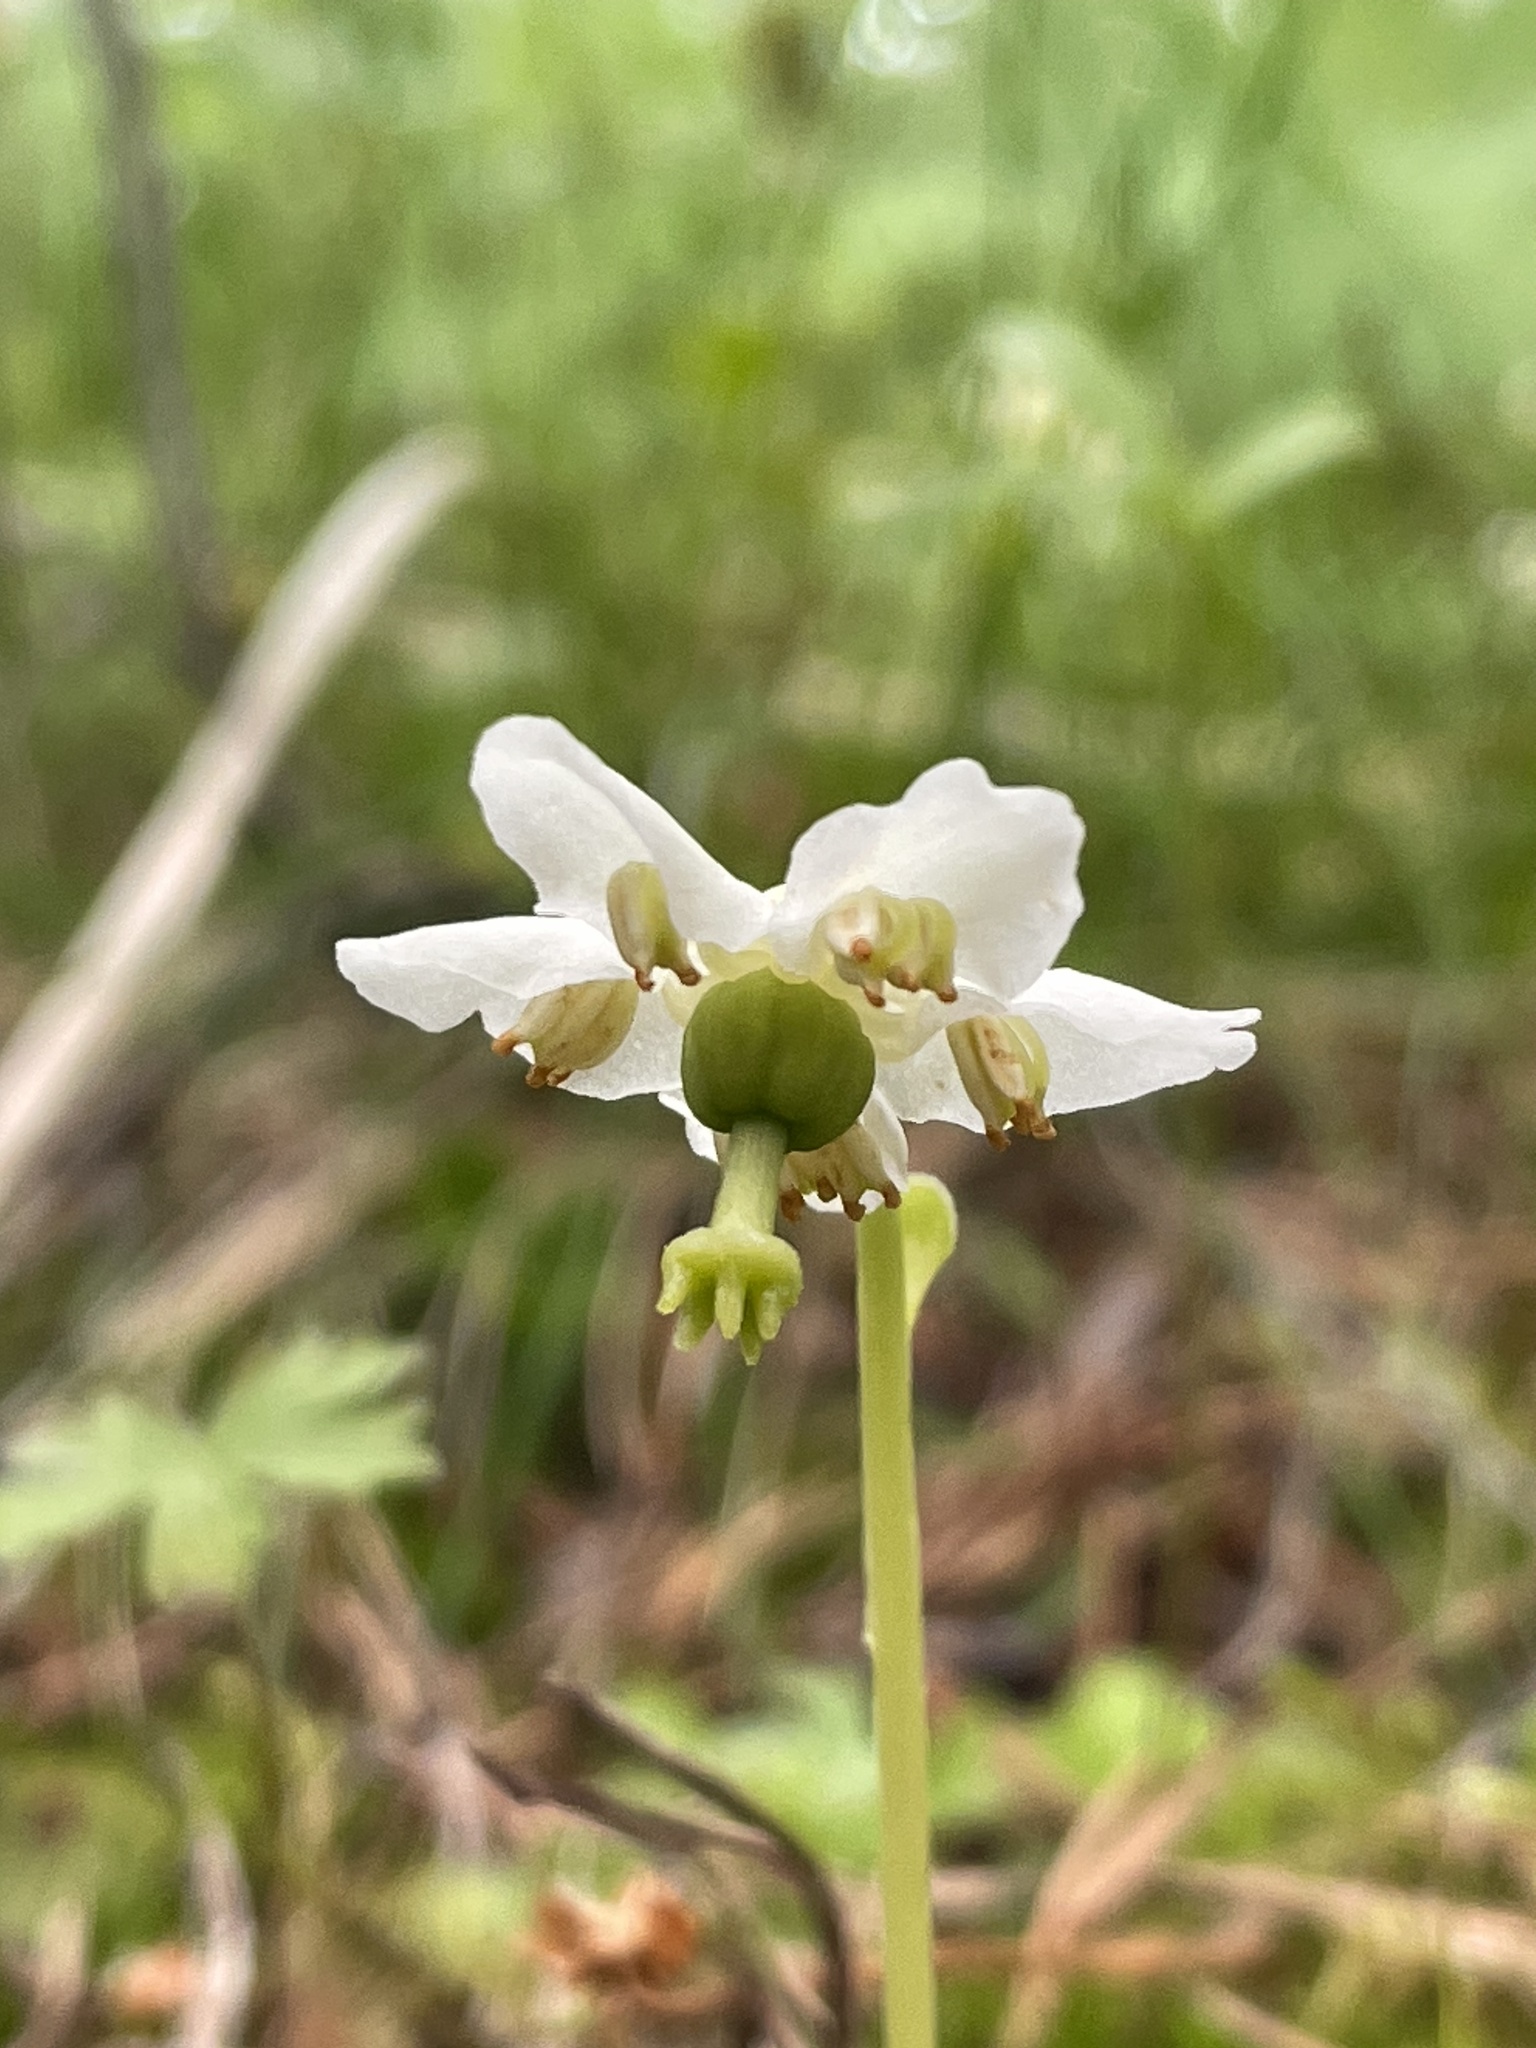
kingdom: Plantae
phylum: Tracheophyta
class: Magnoliopsida
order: Ericales
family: Ericaceae
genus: Moneses
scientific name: Moneses uniflora
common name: One-flowered wintergreen
